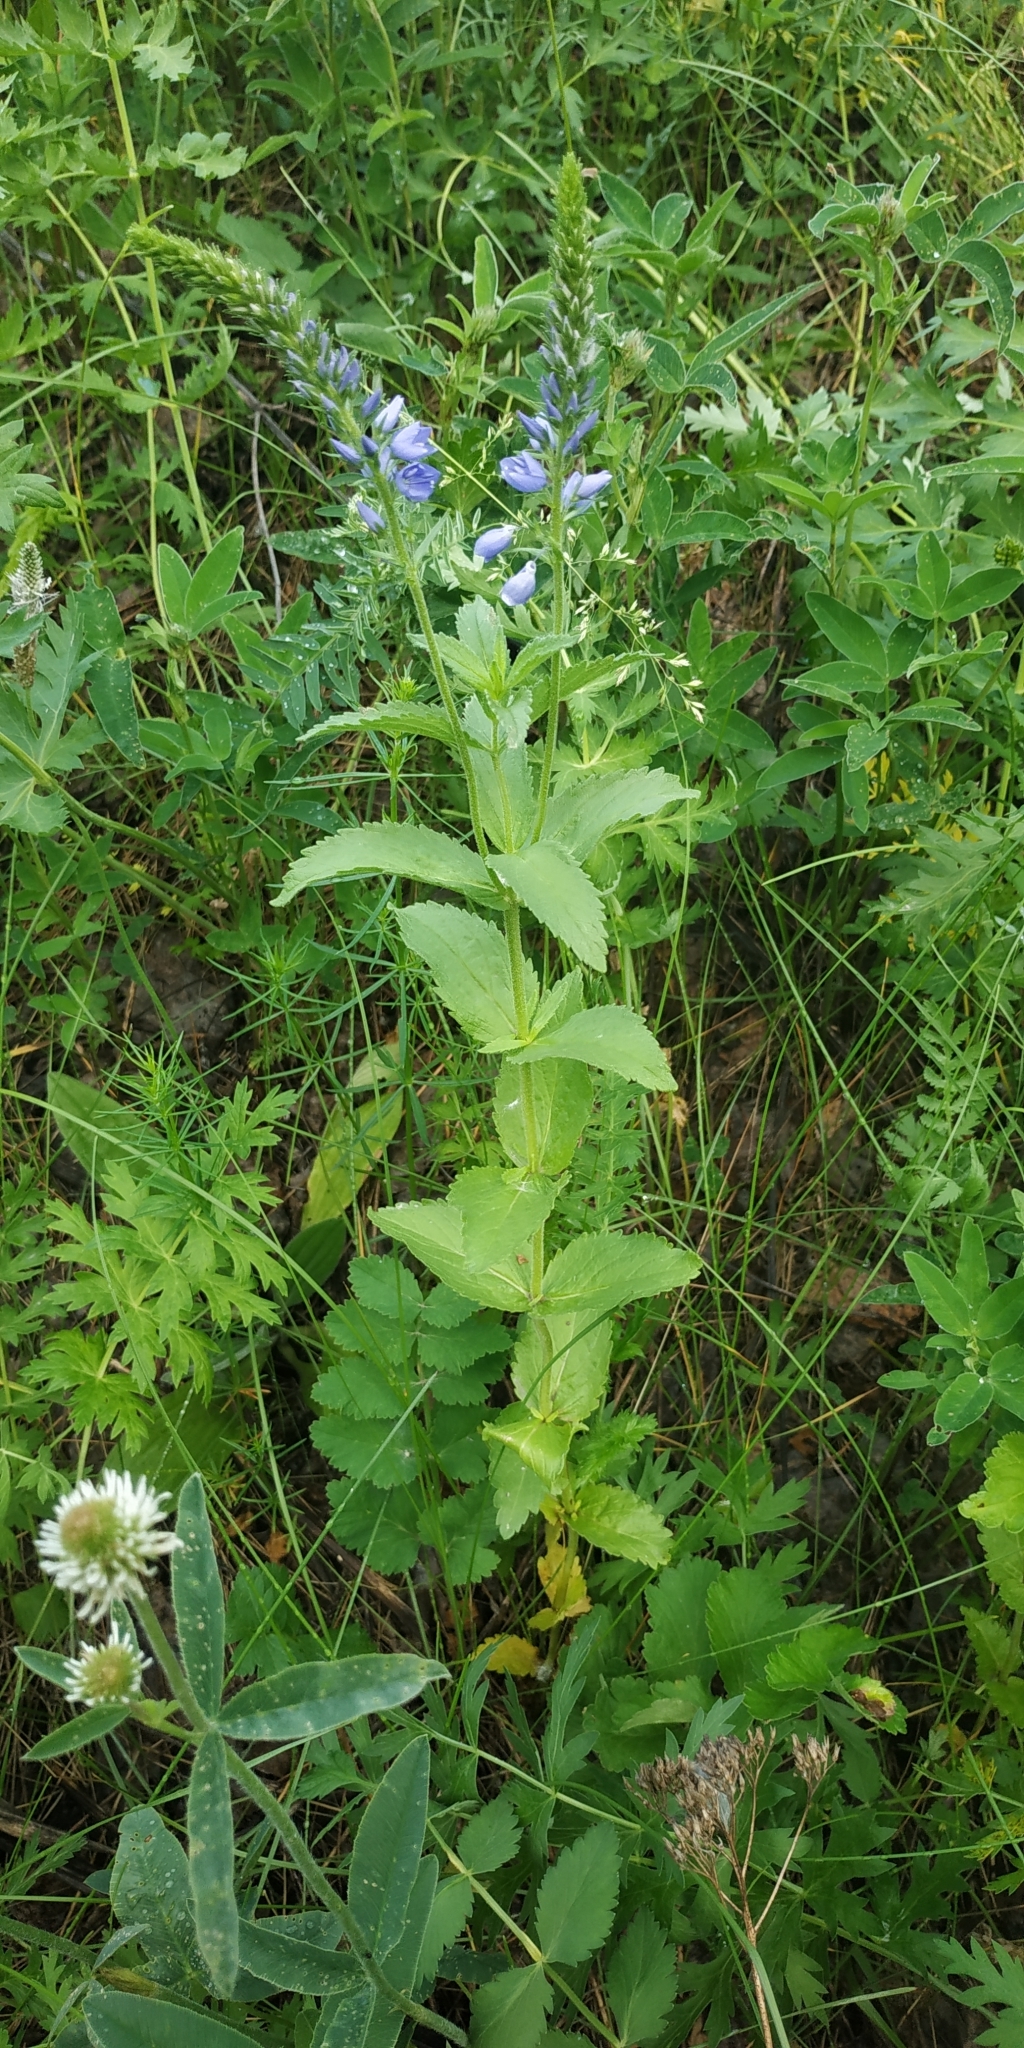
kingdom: Plantae
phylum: Tracheophyta
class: Magnoliopsida
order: Lamiales
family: Plantaginaceae
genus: Veronica
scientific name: Veronica teucrium
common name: Large speedwell
